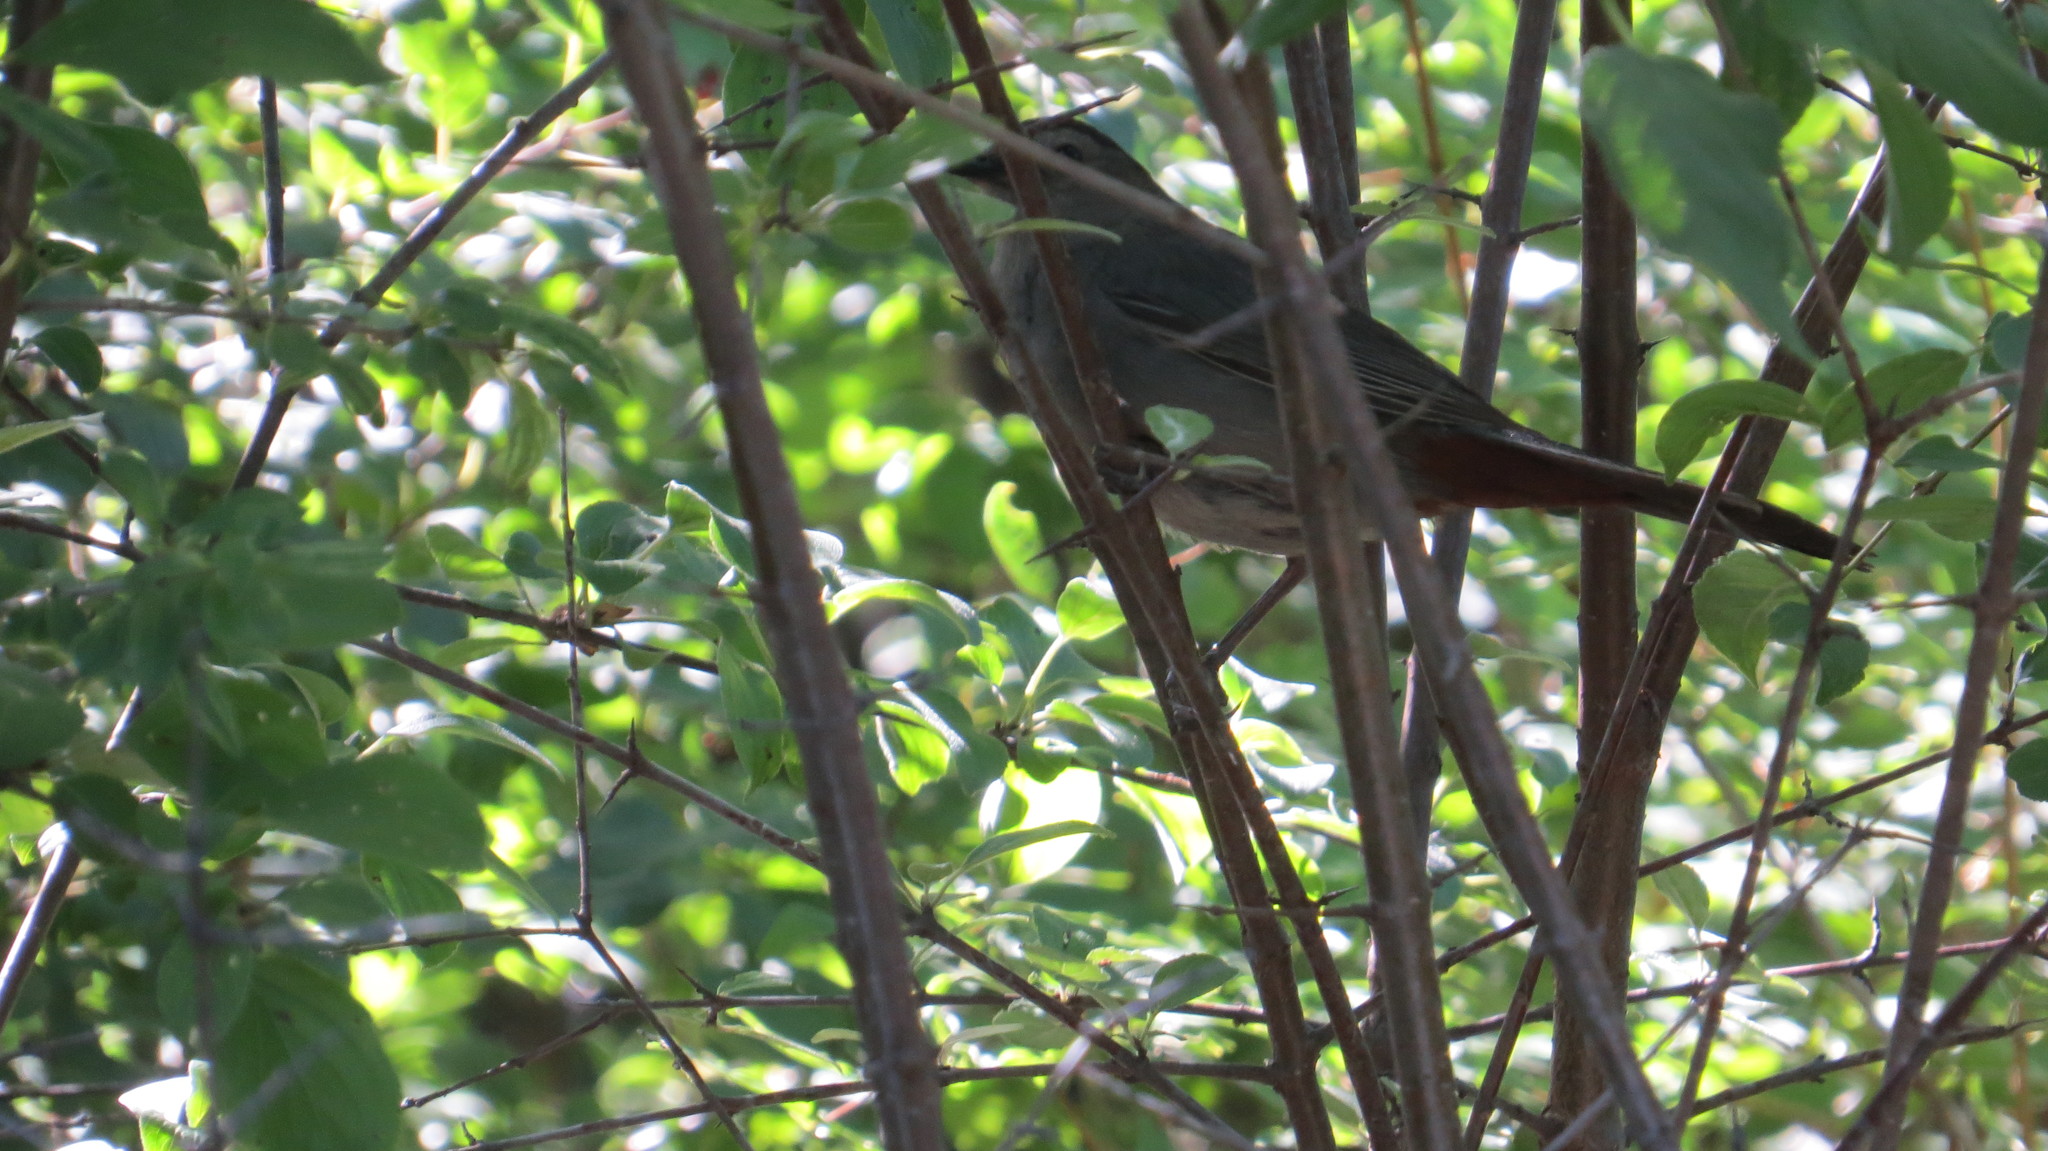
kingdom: Animalia
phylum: Chordata
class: Aves
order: Passeriformes
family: Mimidae
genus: Dumetella
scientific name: Dumetella carolinensis
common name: Gray catbird
